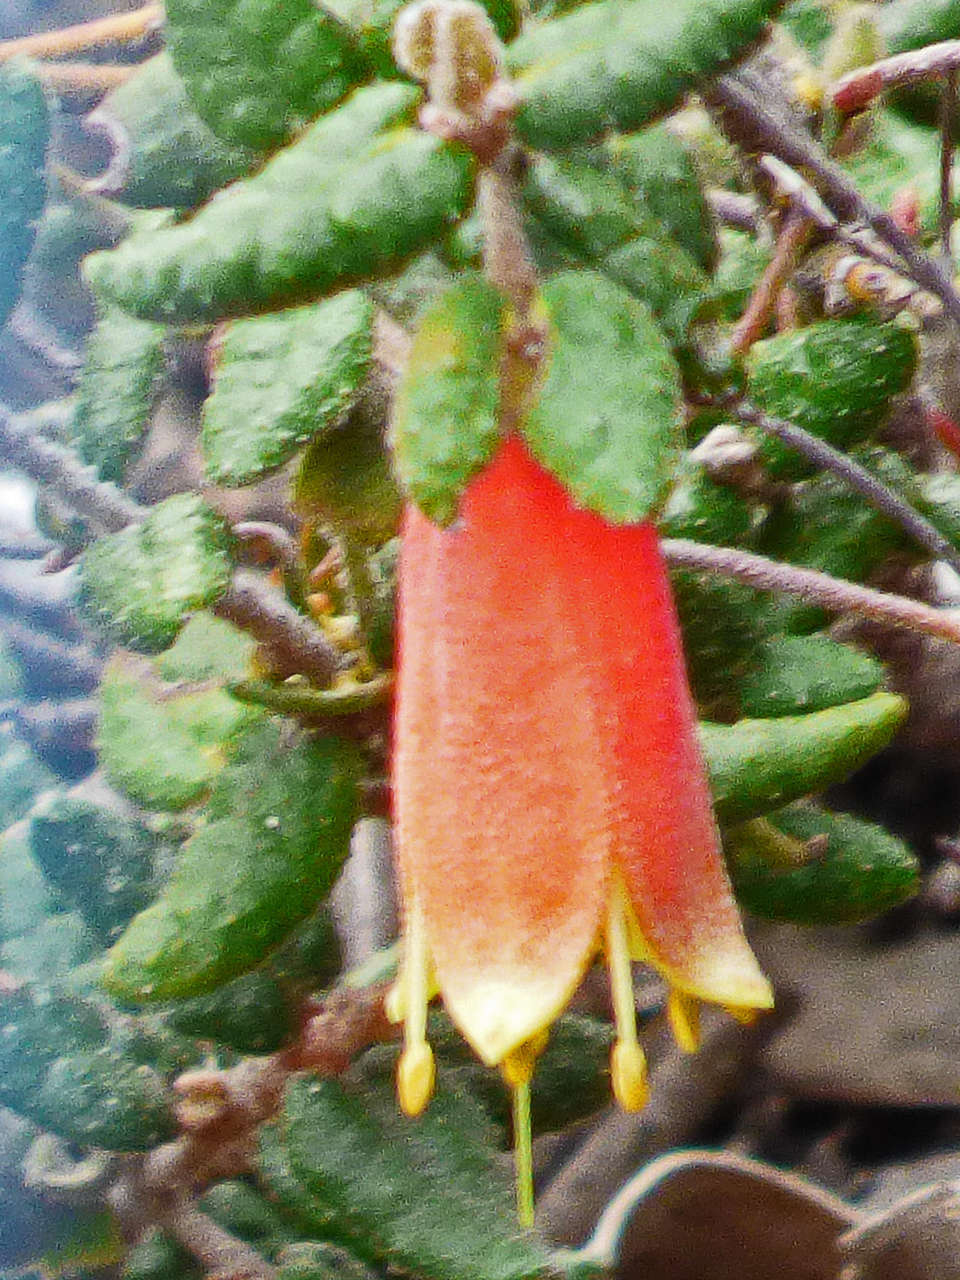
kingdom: Plantae
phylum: Tracheophyta
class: Magnoliopsida
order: Sapindales
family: Rutaceae
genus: Correa
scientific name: Correa reflexa
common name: Common correa
